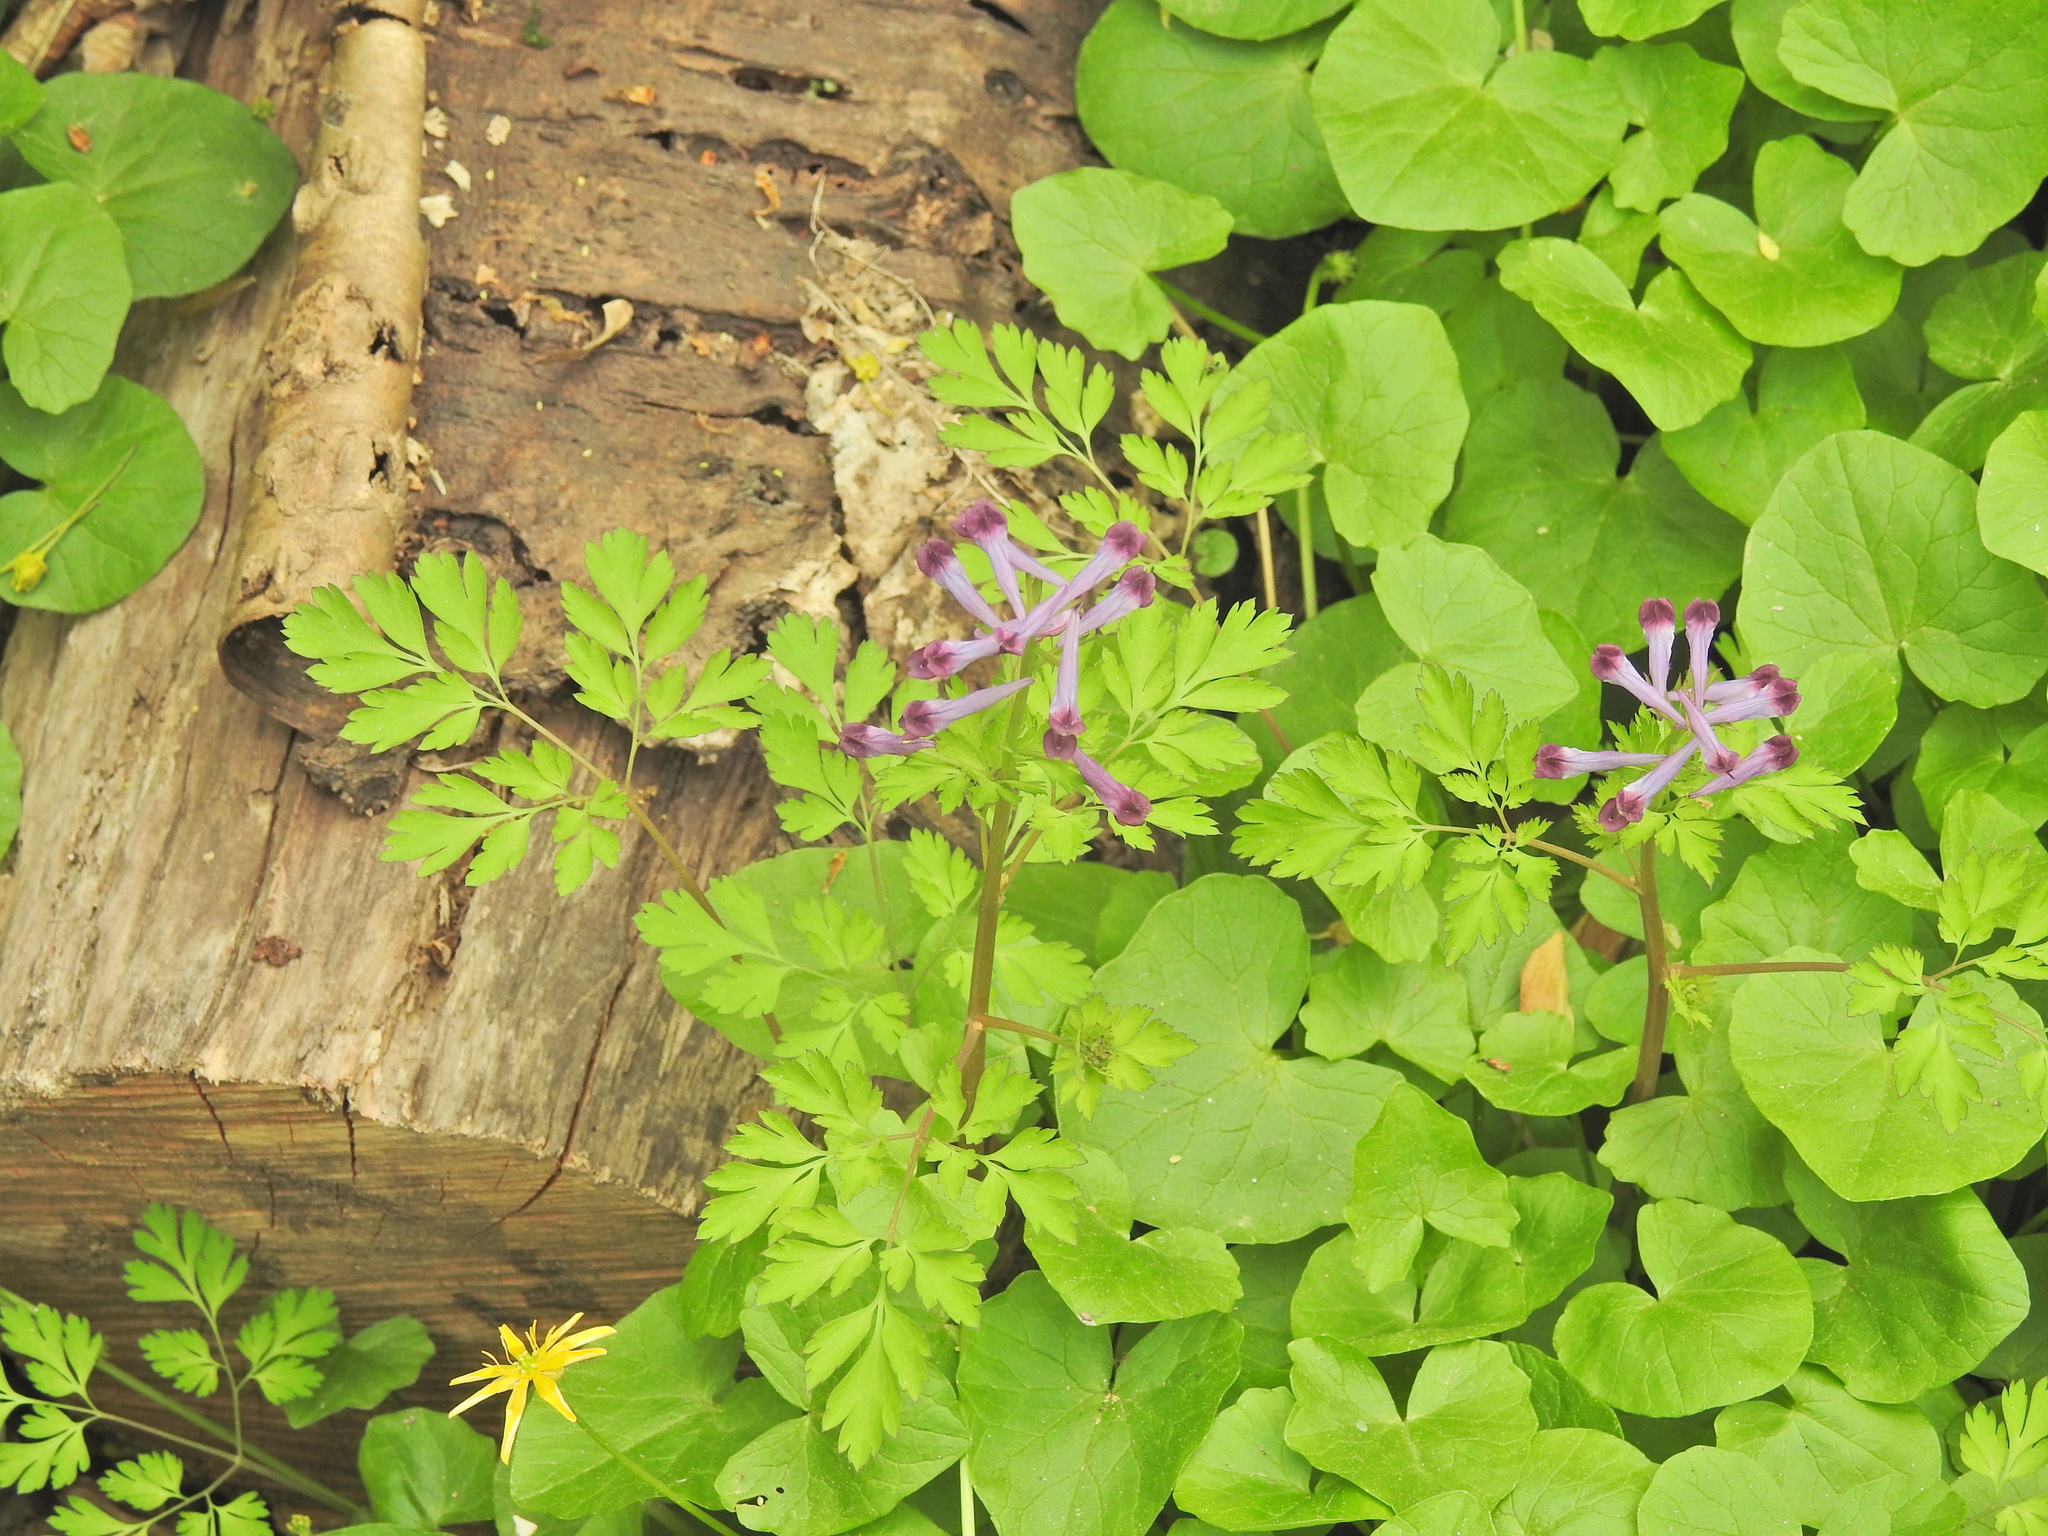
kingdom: Plantae
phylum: Tracheophyta
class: Magnoliopsida
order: Ranunculales
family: Papaveraceae
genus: Corydalis
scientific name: Corydalis incisa
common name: Incised fumewort
